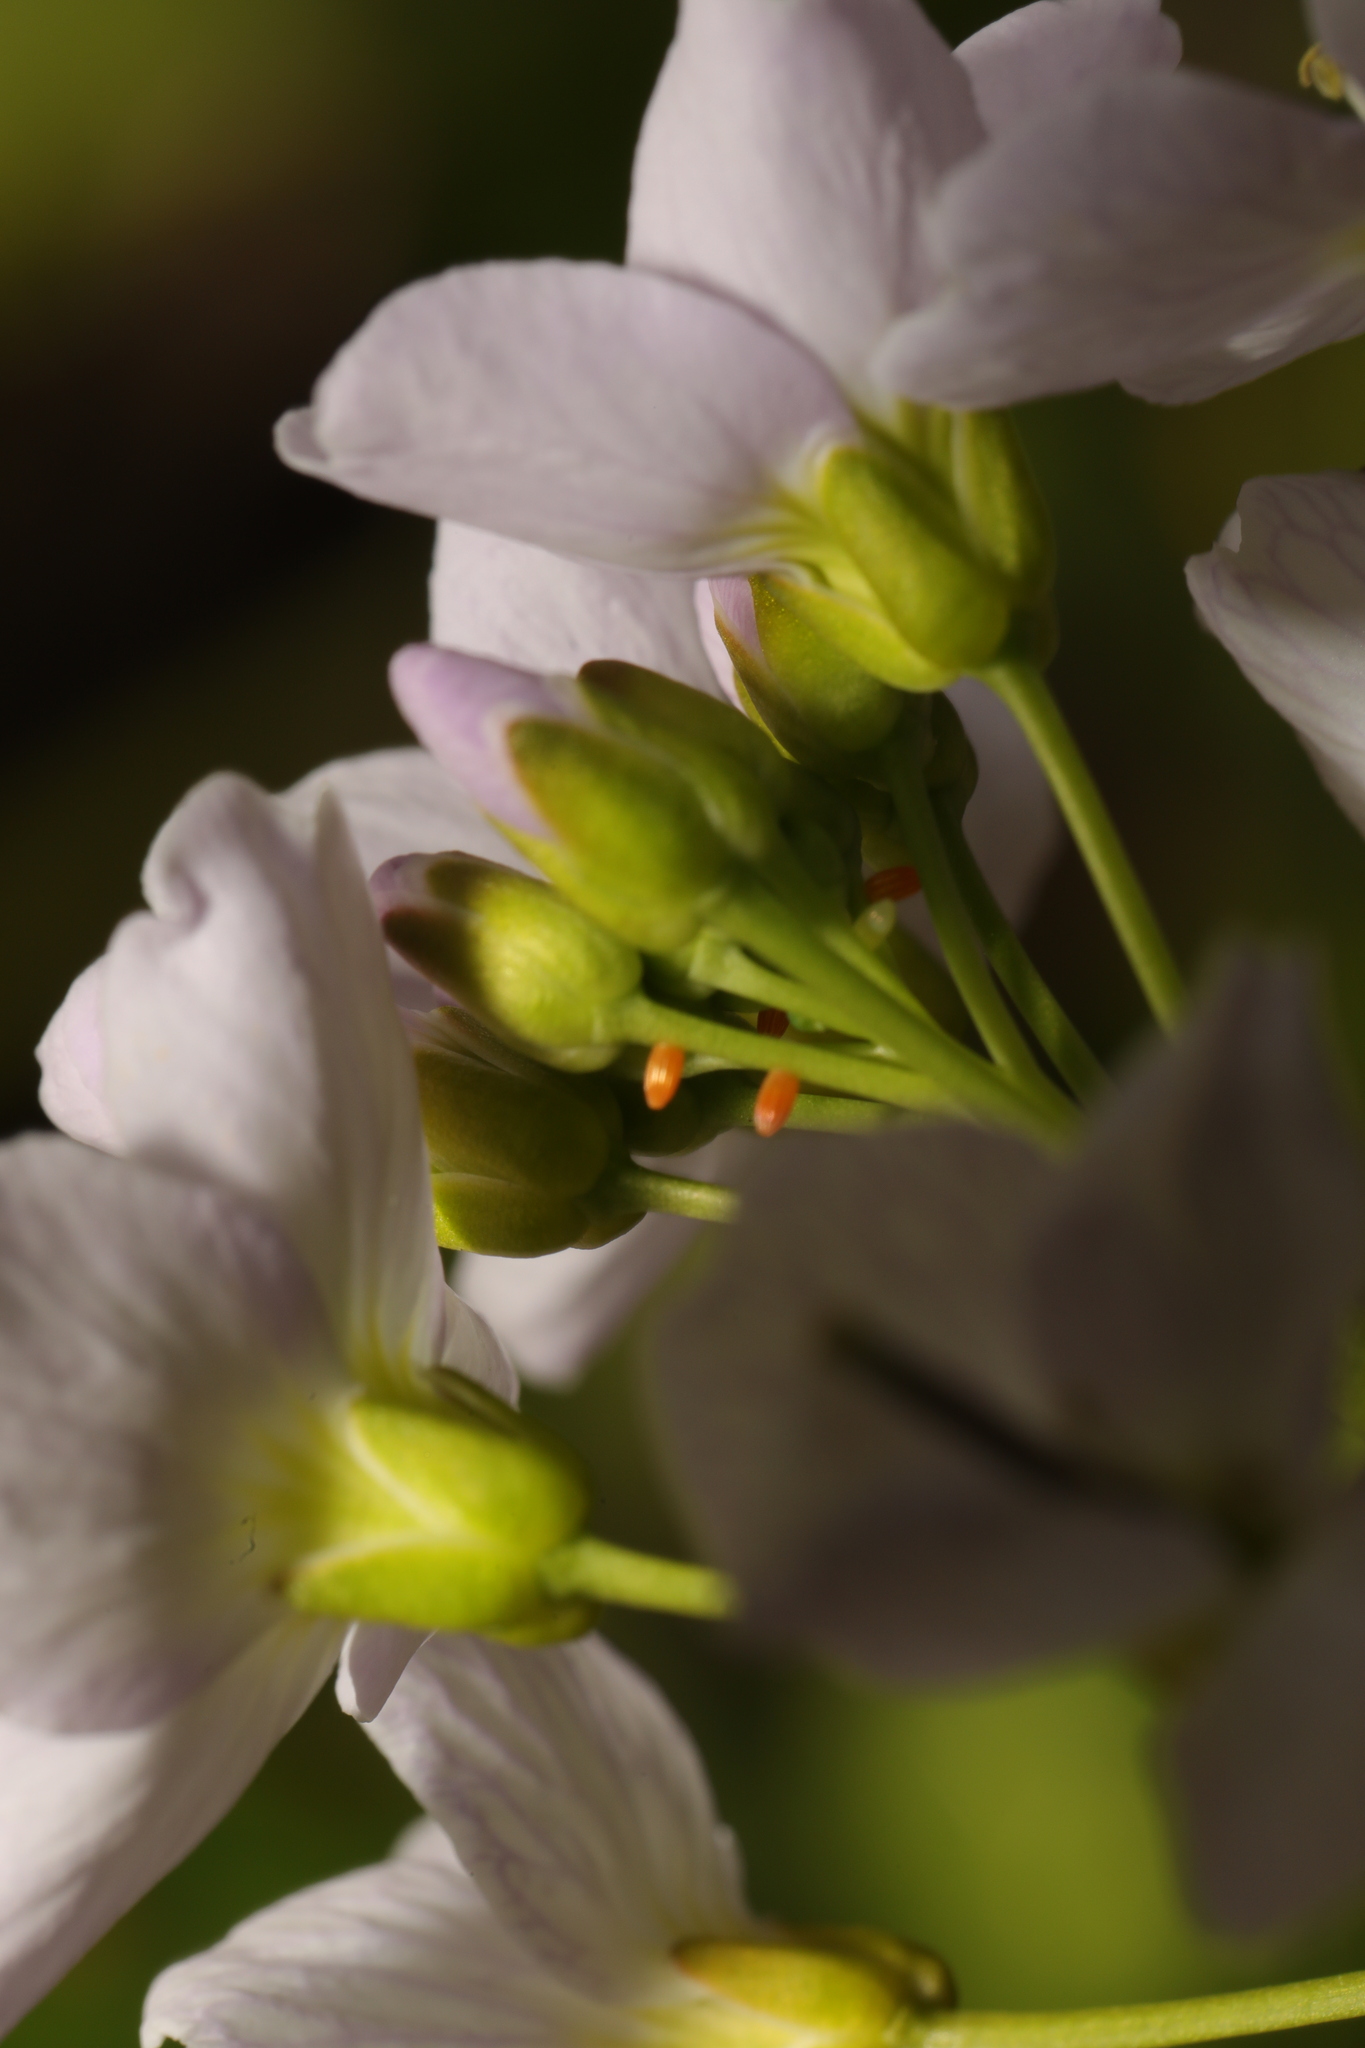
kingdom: Animalia
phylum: Arthropoda
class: Insecta
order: Lepidoptera
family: Pieridae
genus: Anthocharis
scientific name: Anthocharis cardamines
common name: Orange-tip
